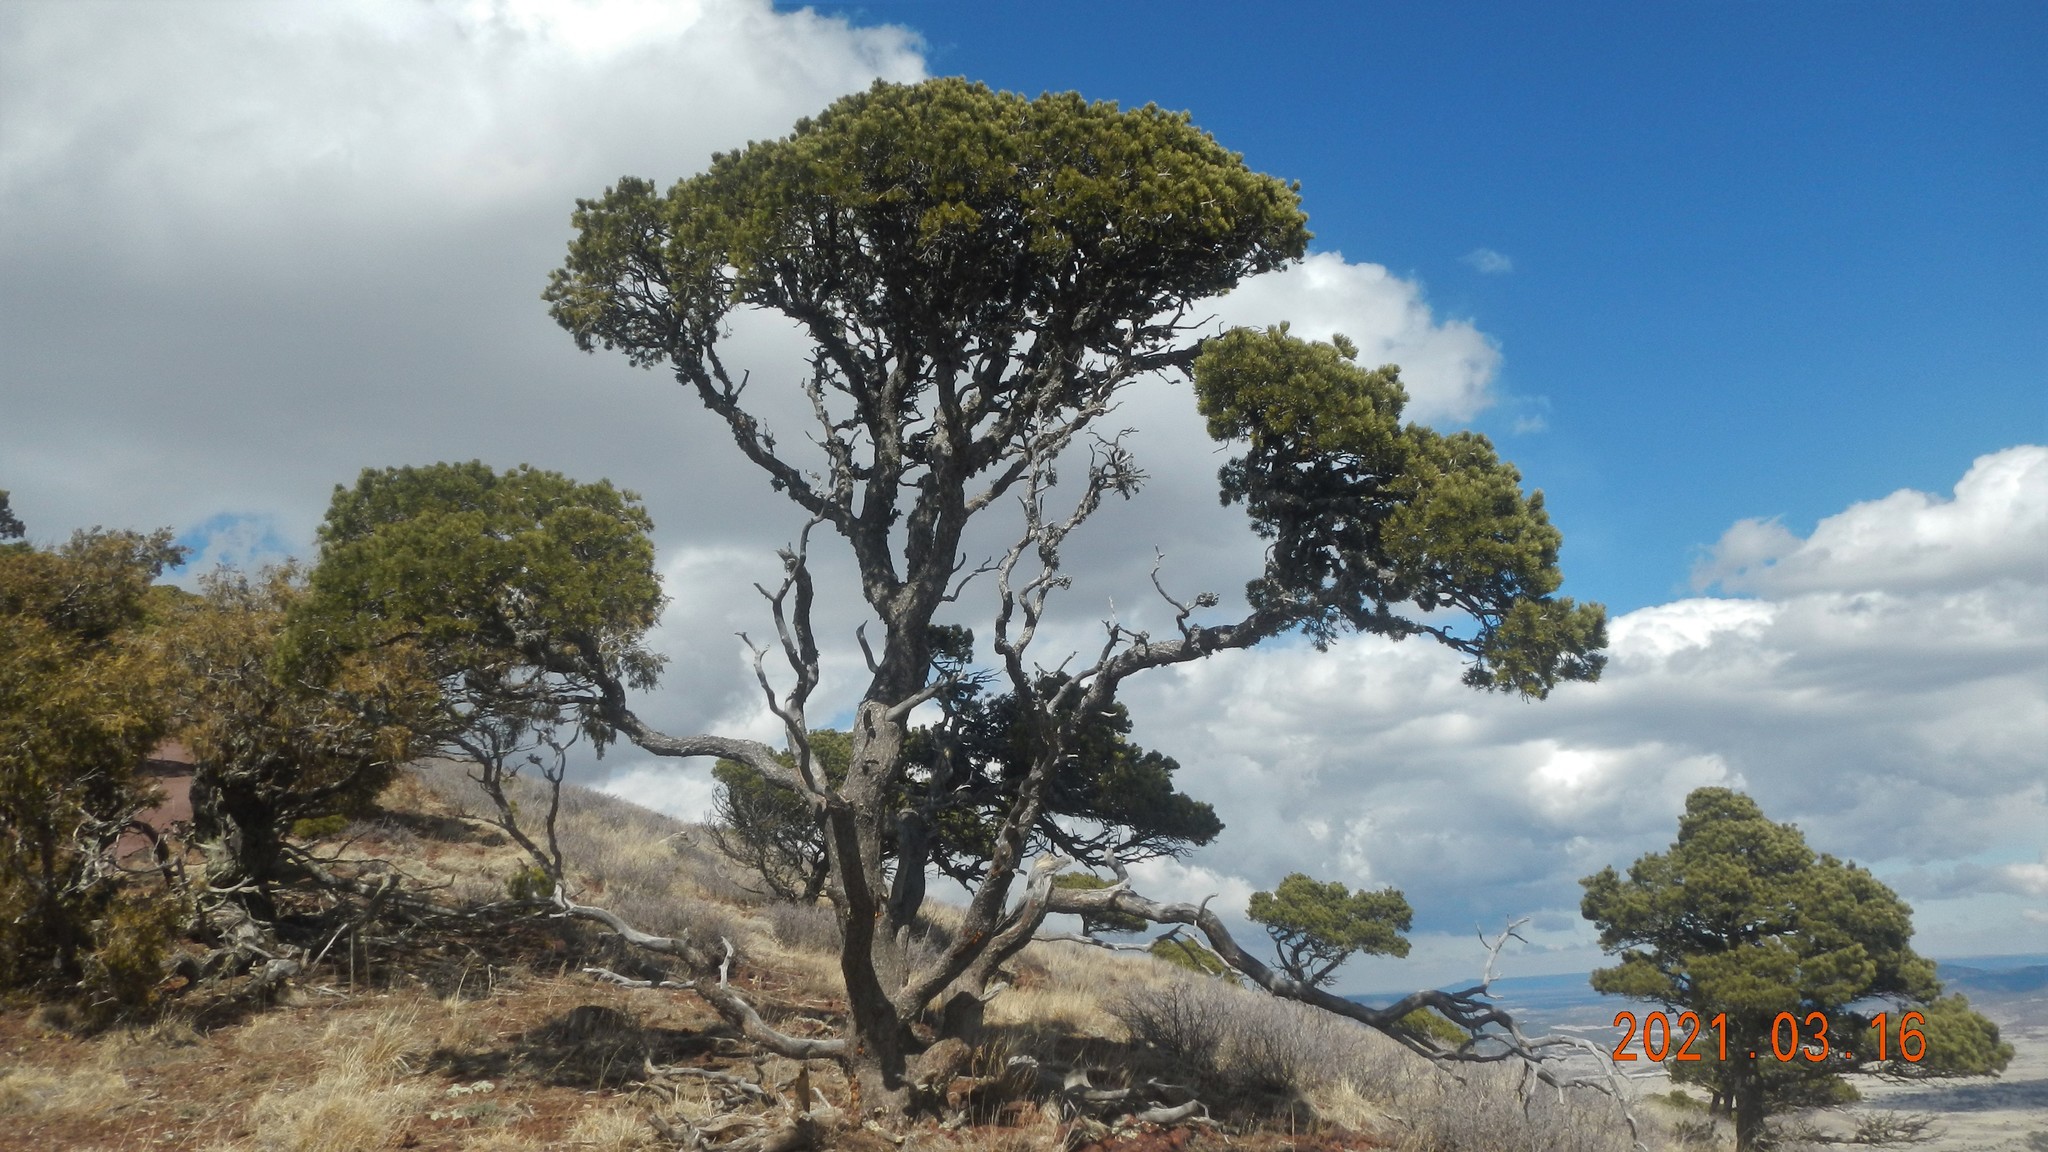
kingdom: Plantae
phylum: Tracheophyta
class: Pinopsida
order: Pinales
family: Pinaceae
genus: Pinus
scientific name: Pinus edulis
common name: Colorado pinyon
